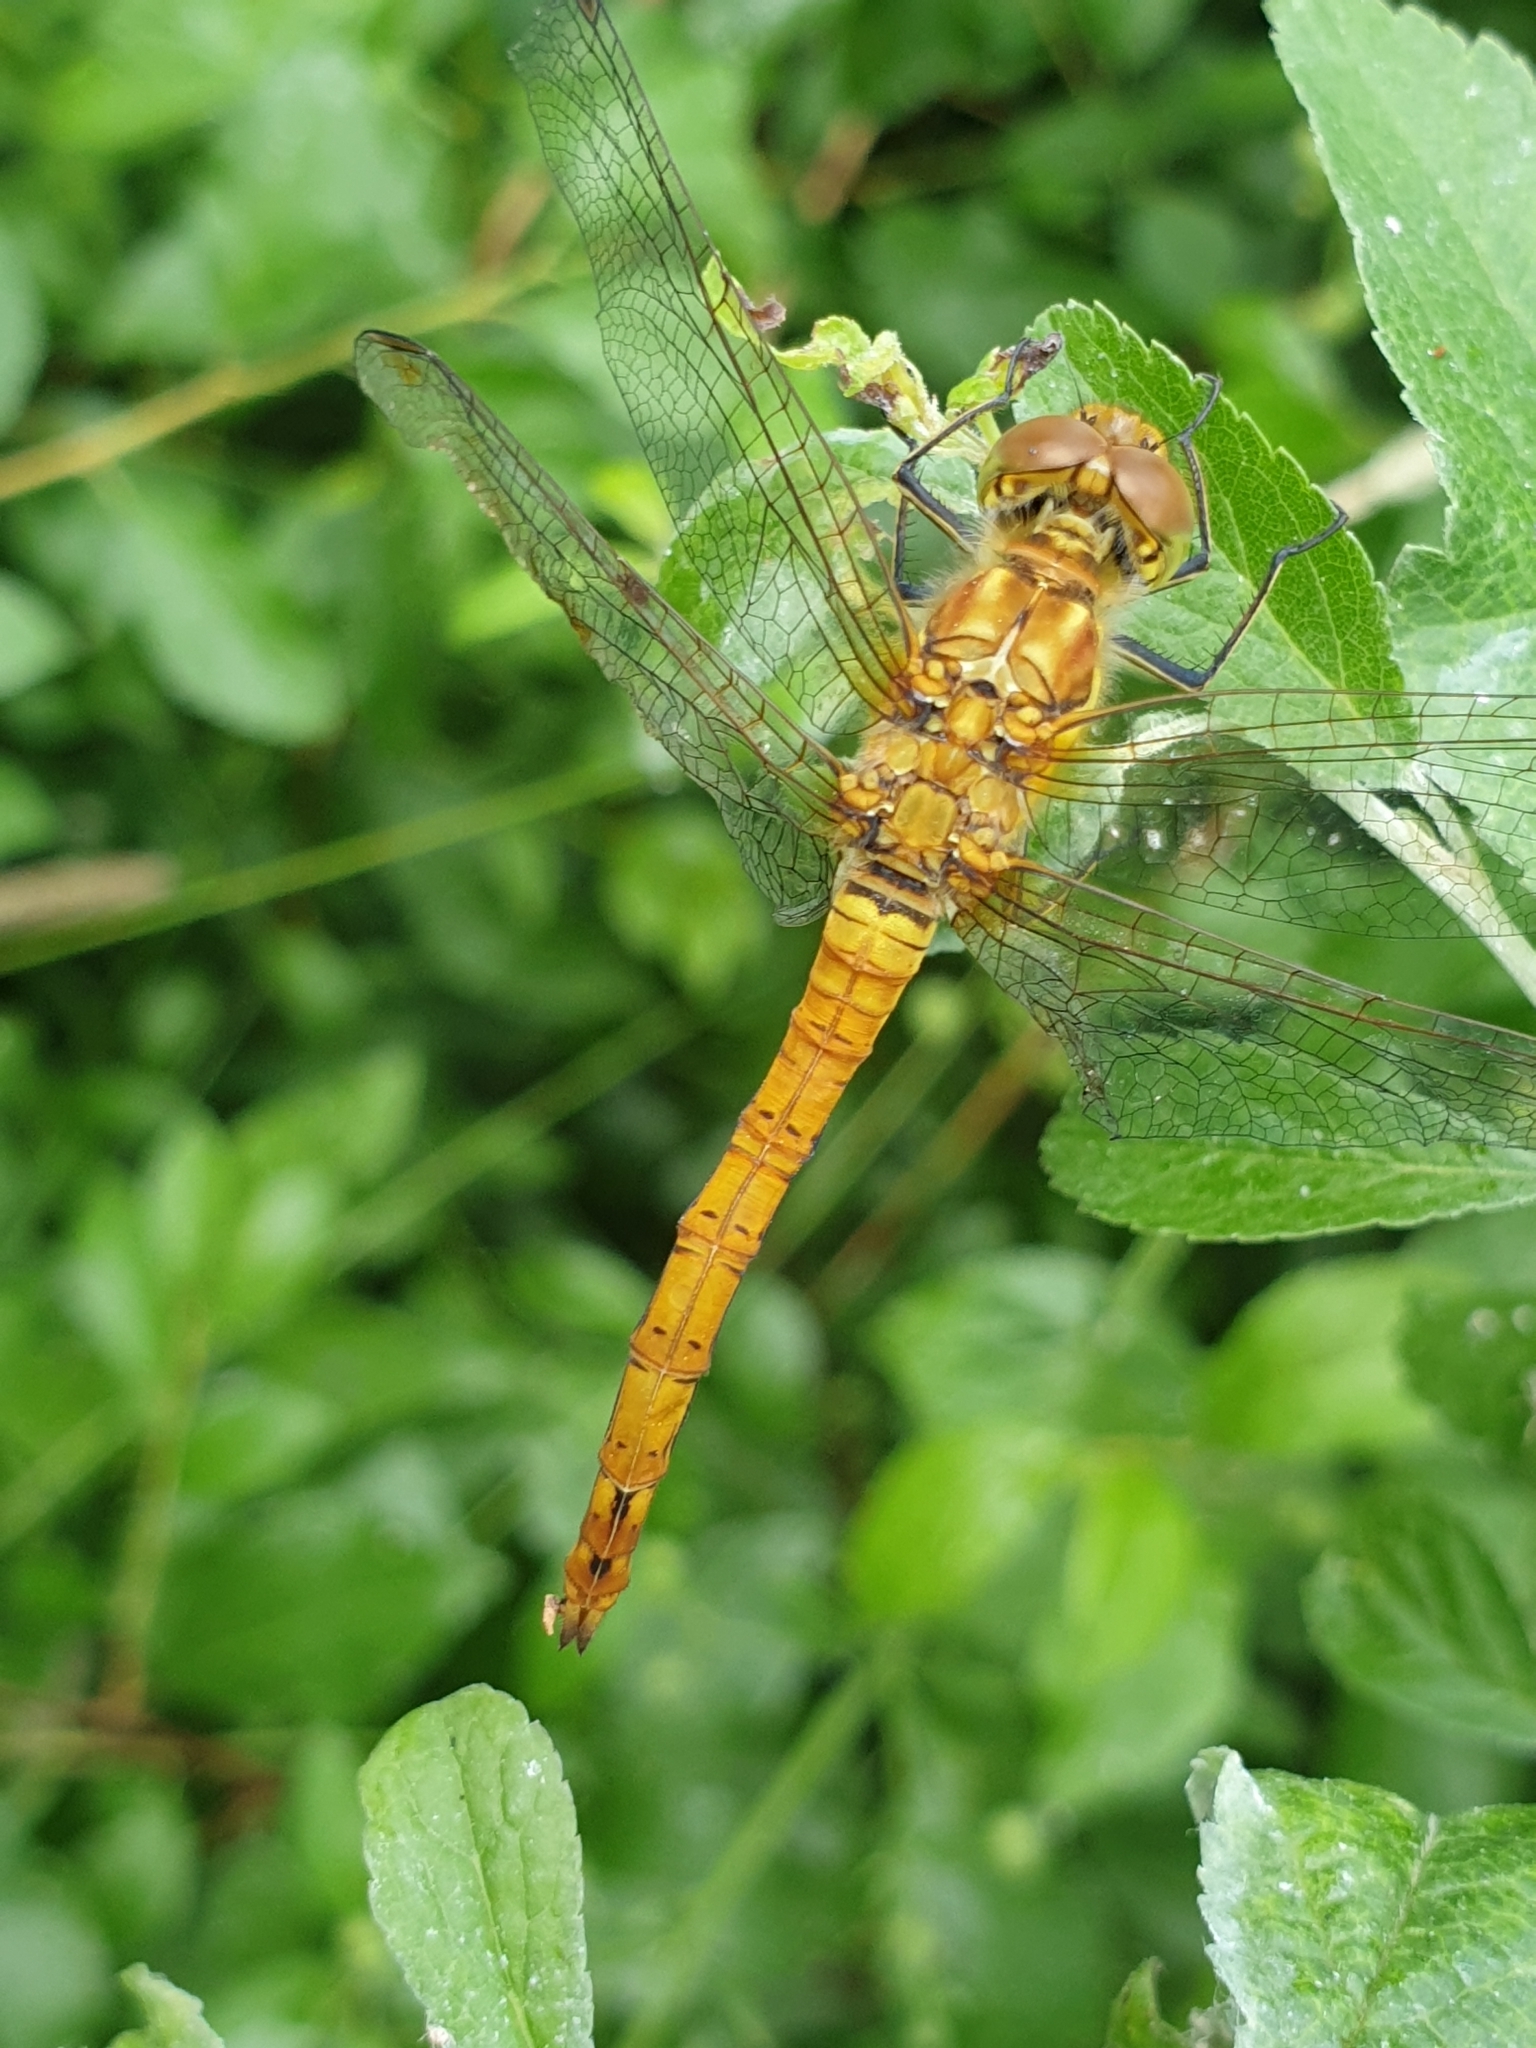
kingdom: Animalia
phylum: Arthropoda
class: Insecta
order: Odonata
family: Libellulidae
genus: Sympetrum
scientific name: Sympetrum striolatum
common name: Common darter
